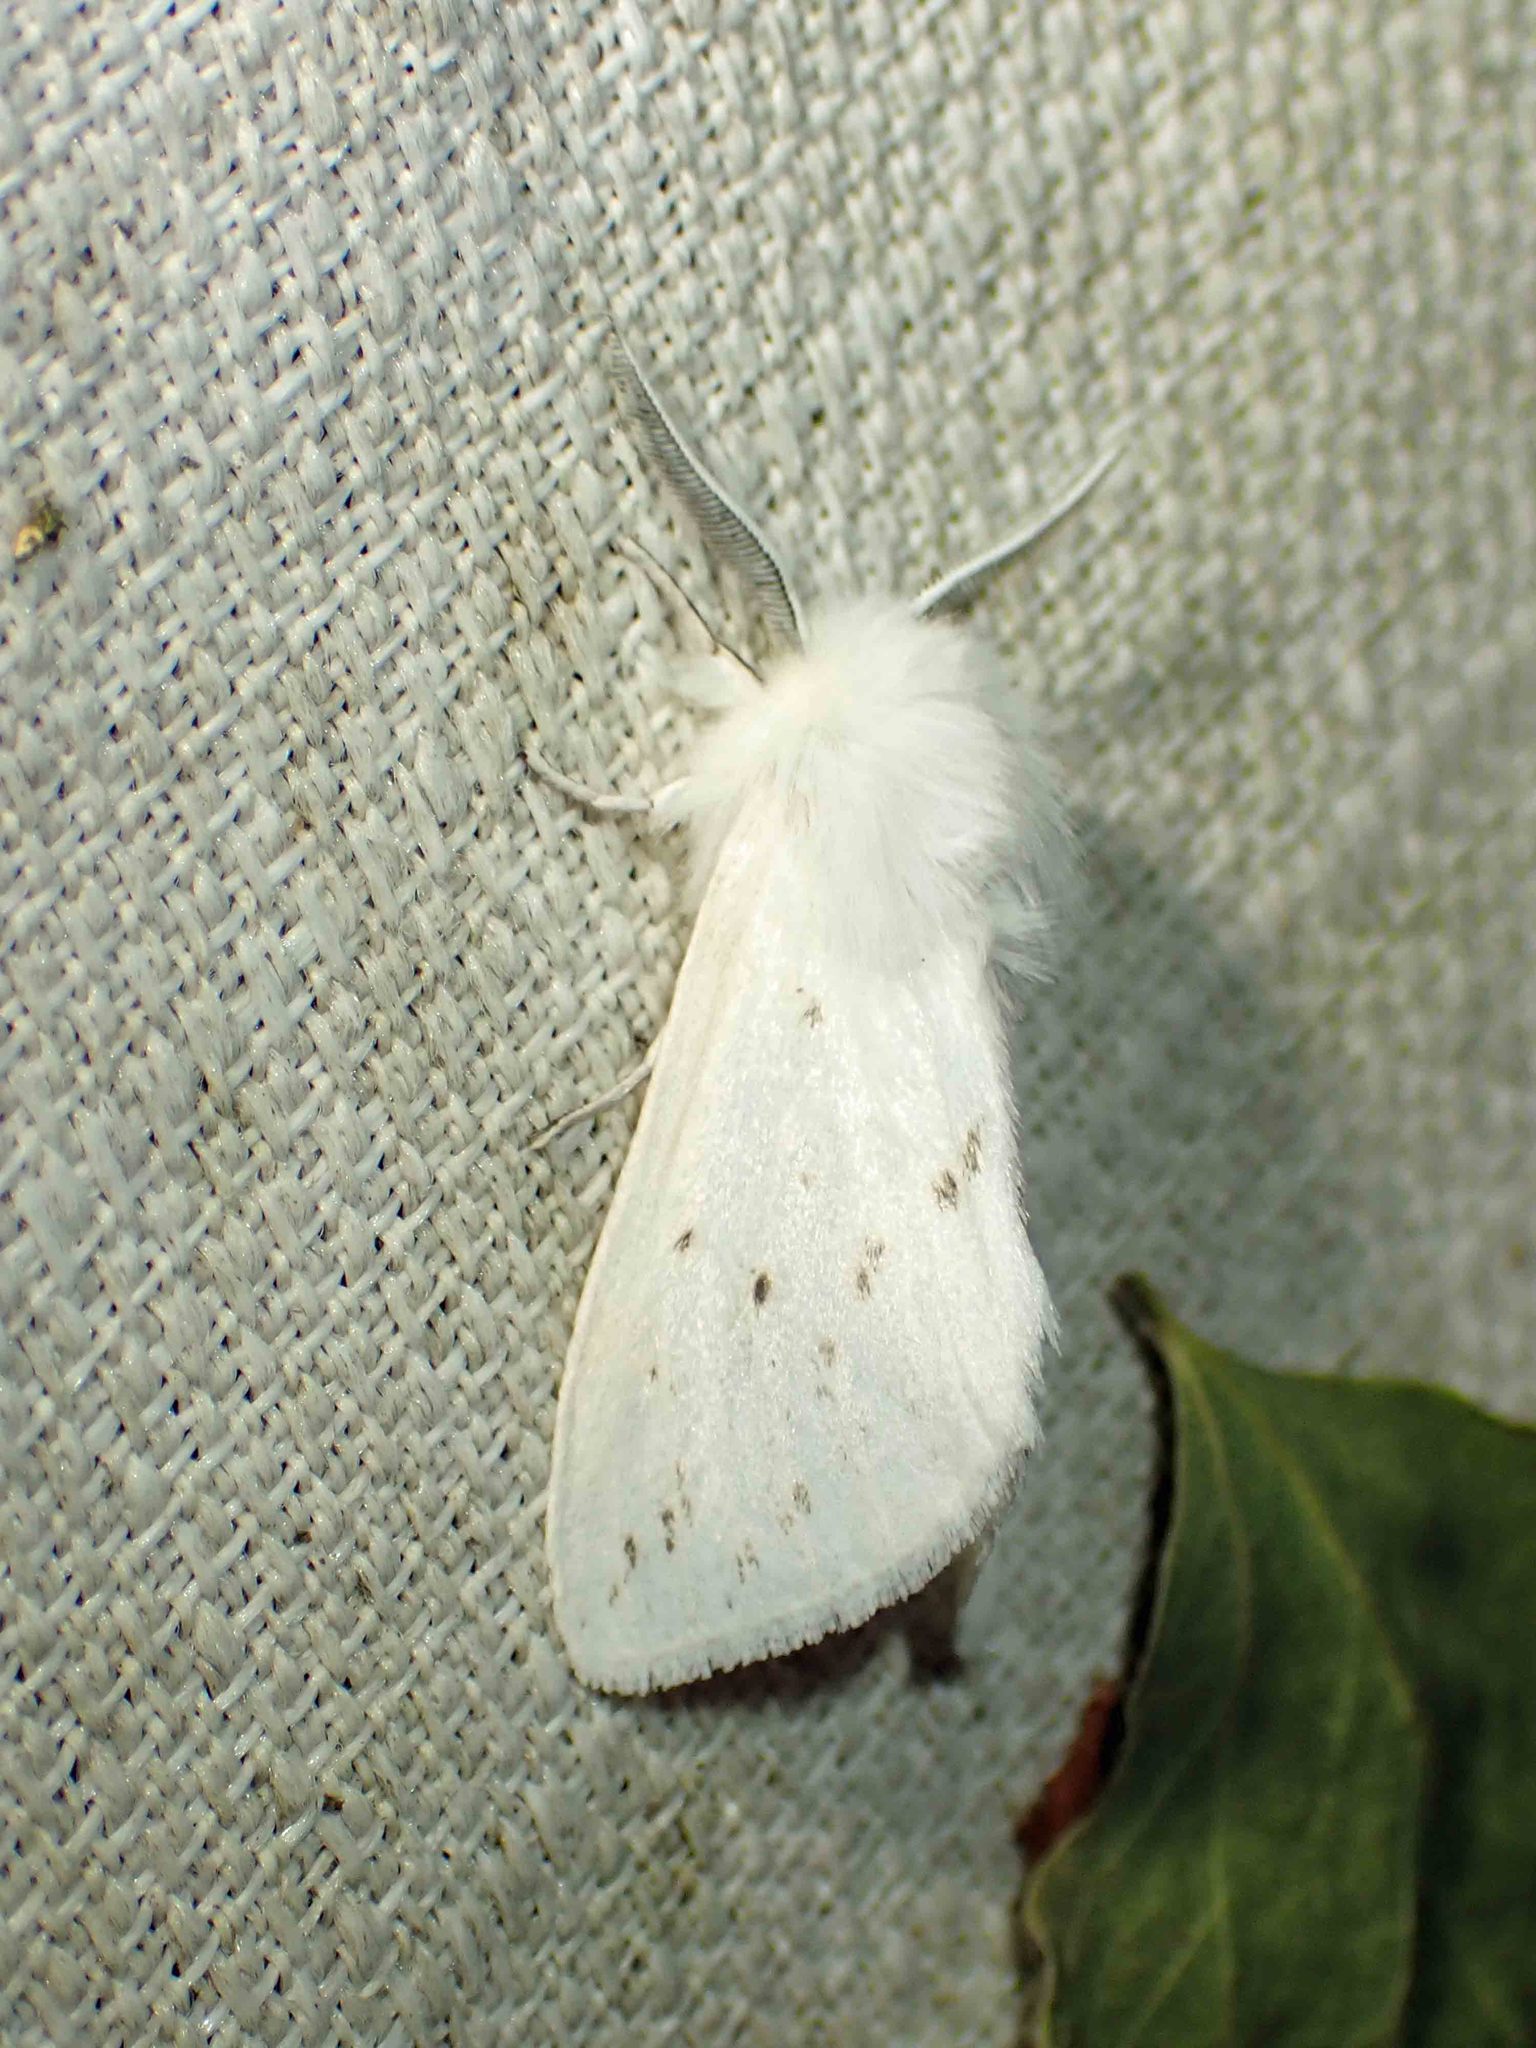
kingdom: Animalia
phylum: Arthropoda
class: Insecta
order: Lepidoptera
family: Erebidae
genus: Spilosoma
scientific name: Spilosoma congrua
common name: Agreeable tiger moth
